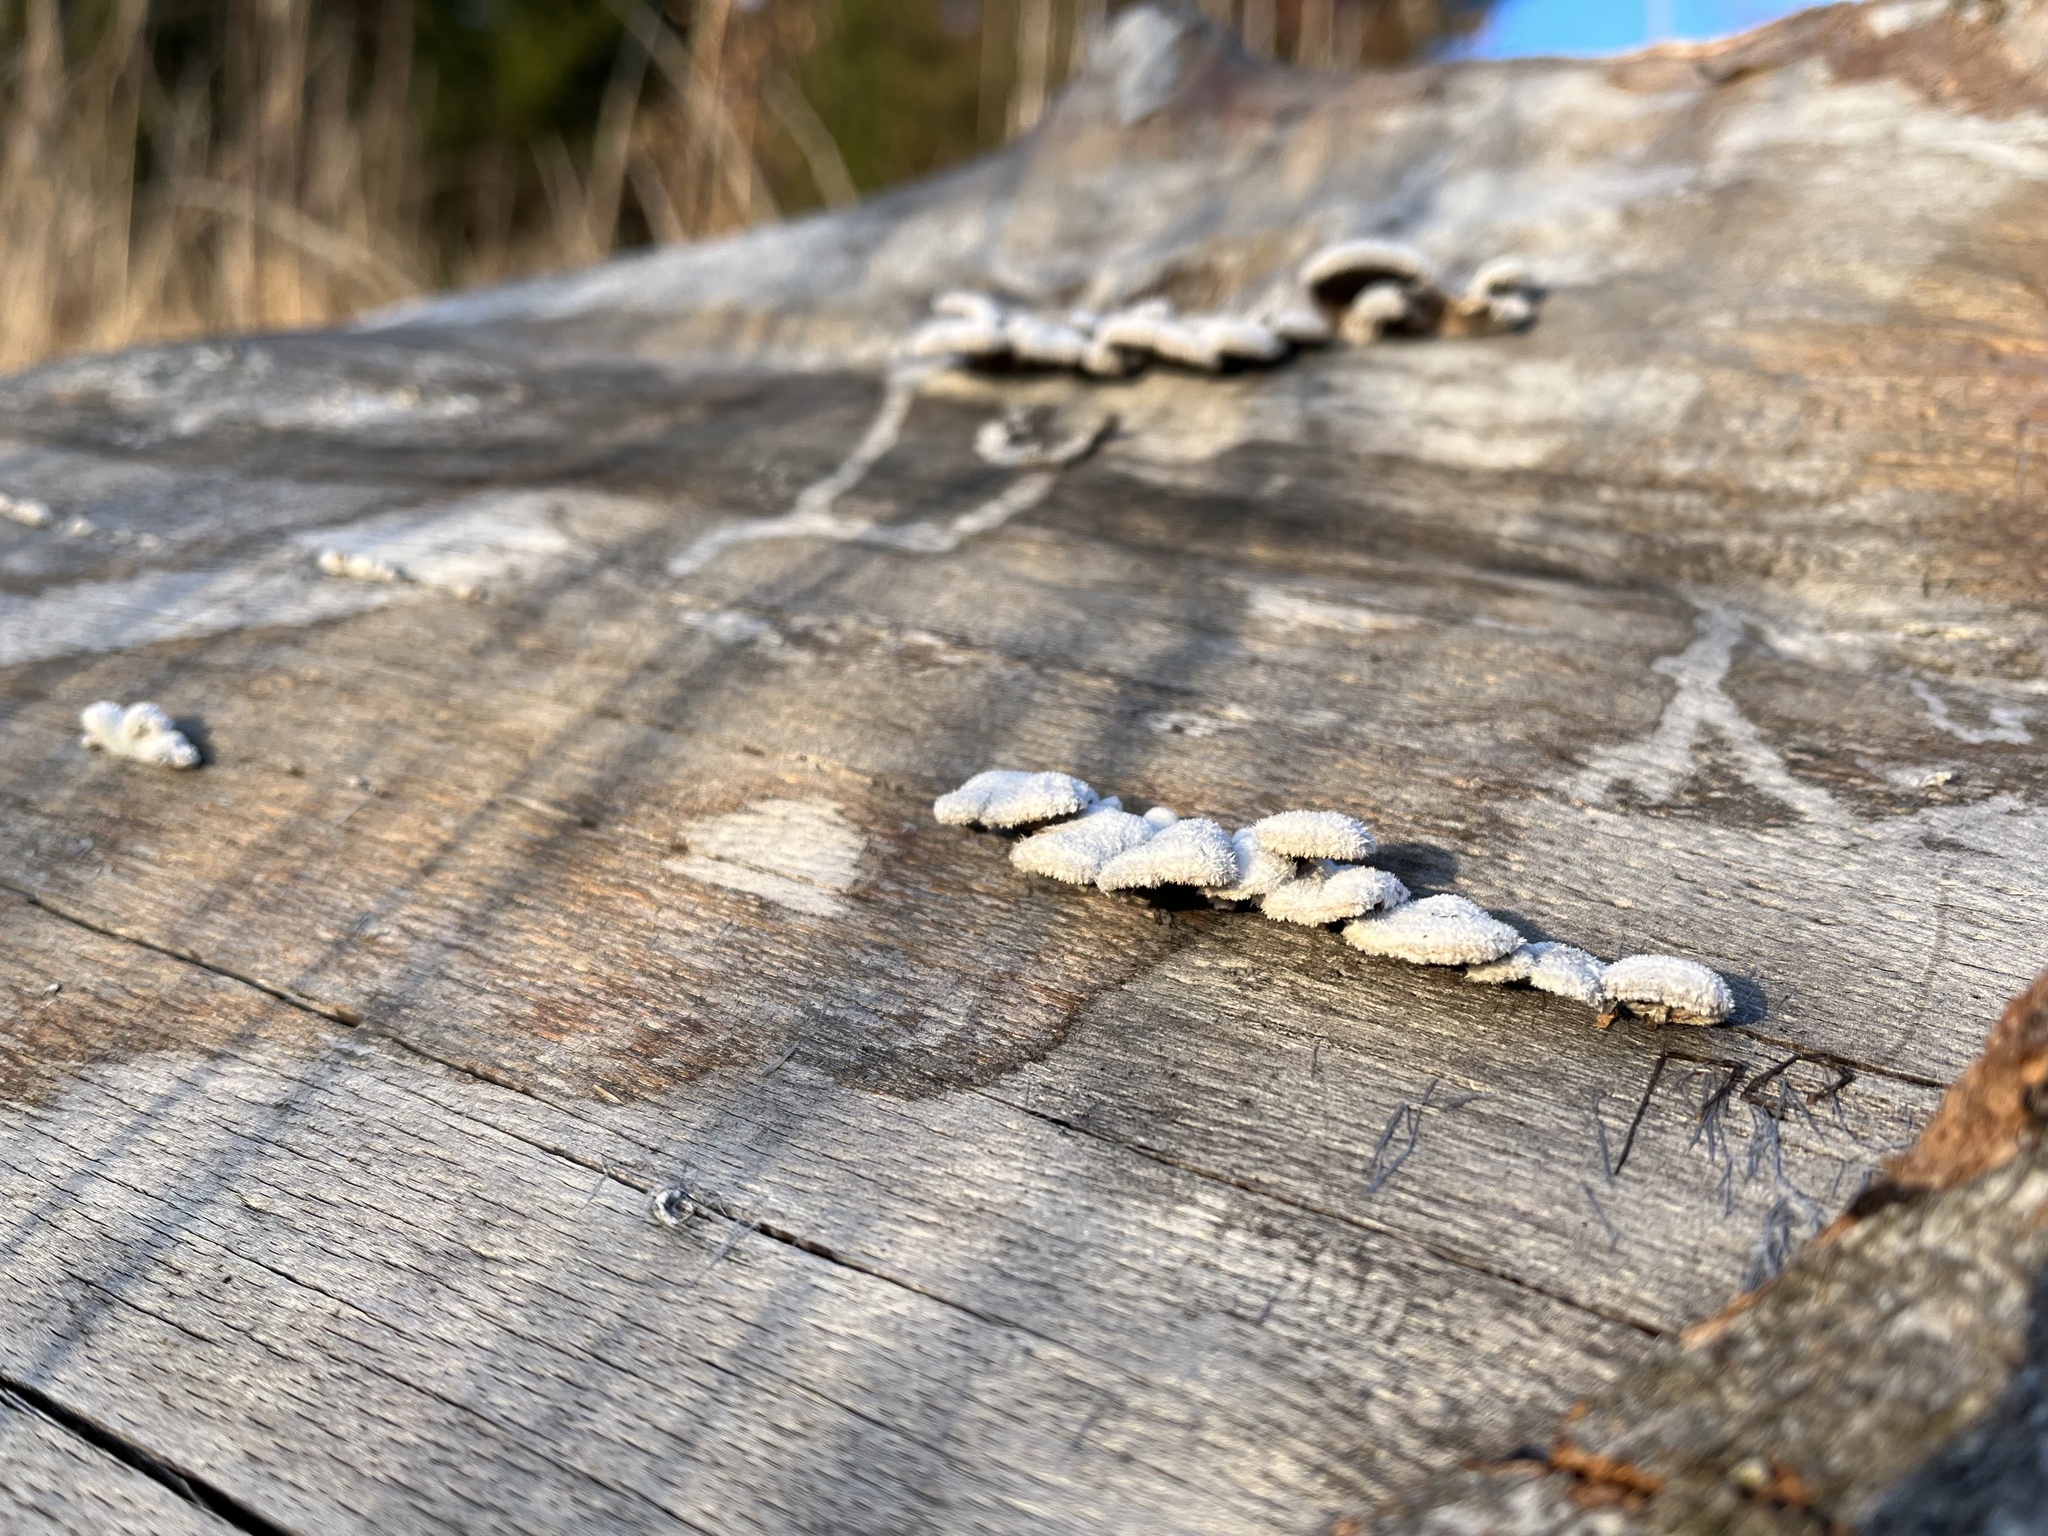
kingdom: Fungi
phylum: Basidiomycota
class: Agaricomycetes
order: Agaricales
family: Schizophyllaceae
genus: Schizophyllum
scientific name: Schizophyllum commune
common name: Common porecrust
